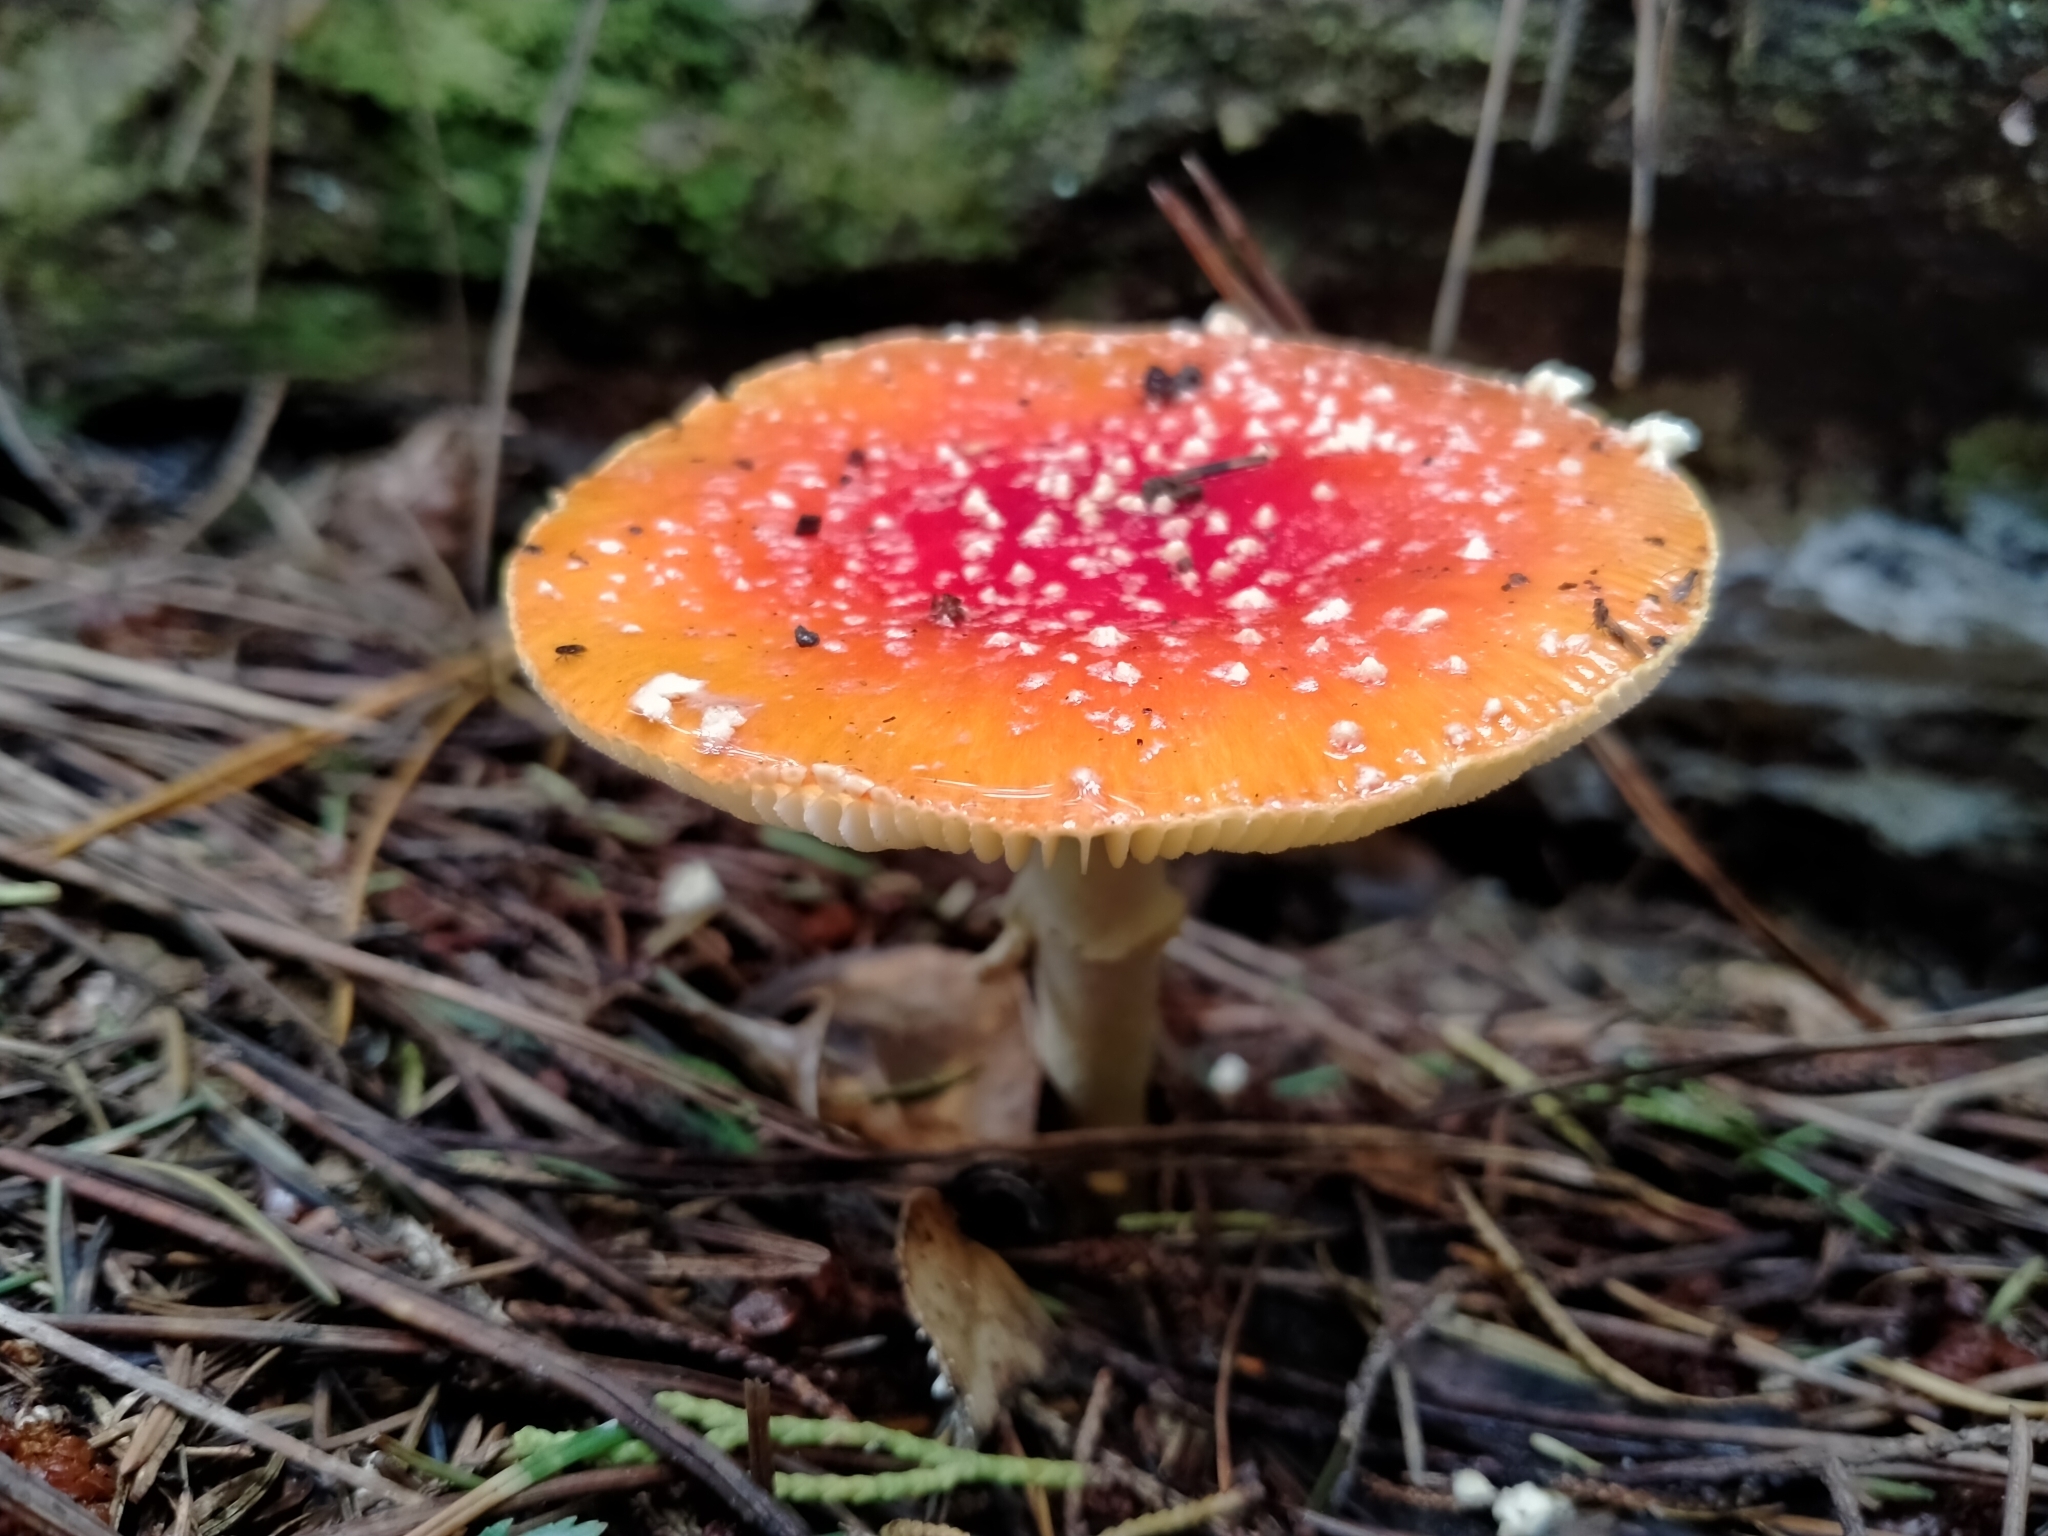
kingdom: Fungi
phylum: Basidiomycota
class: Agaricomycetes
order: Agaricales
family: Amanitaceae
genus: Amanita
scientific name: Amanita muscaria
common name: Fly agaric
